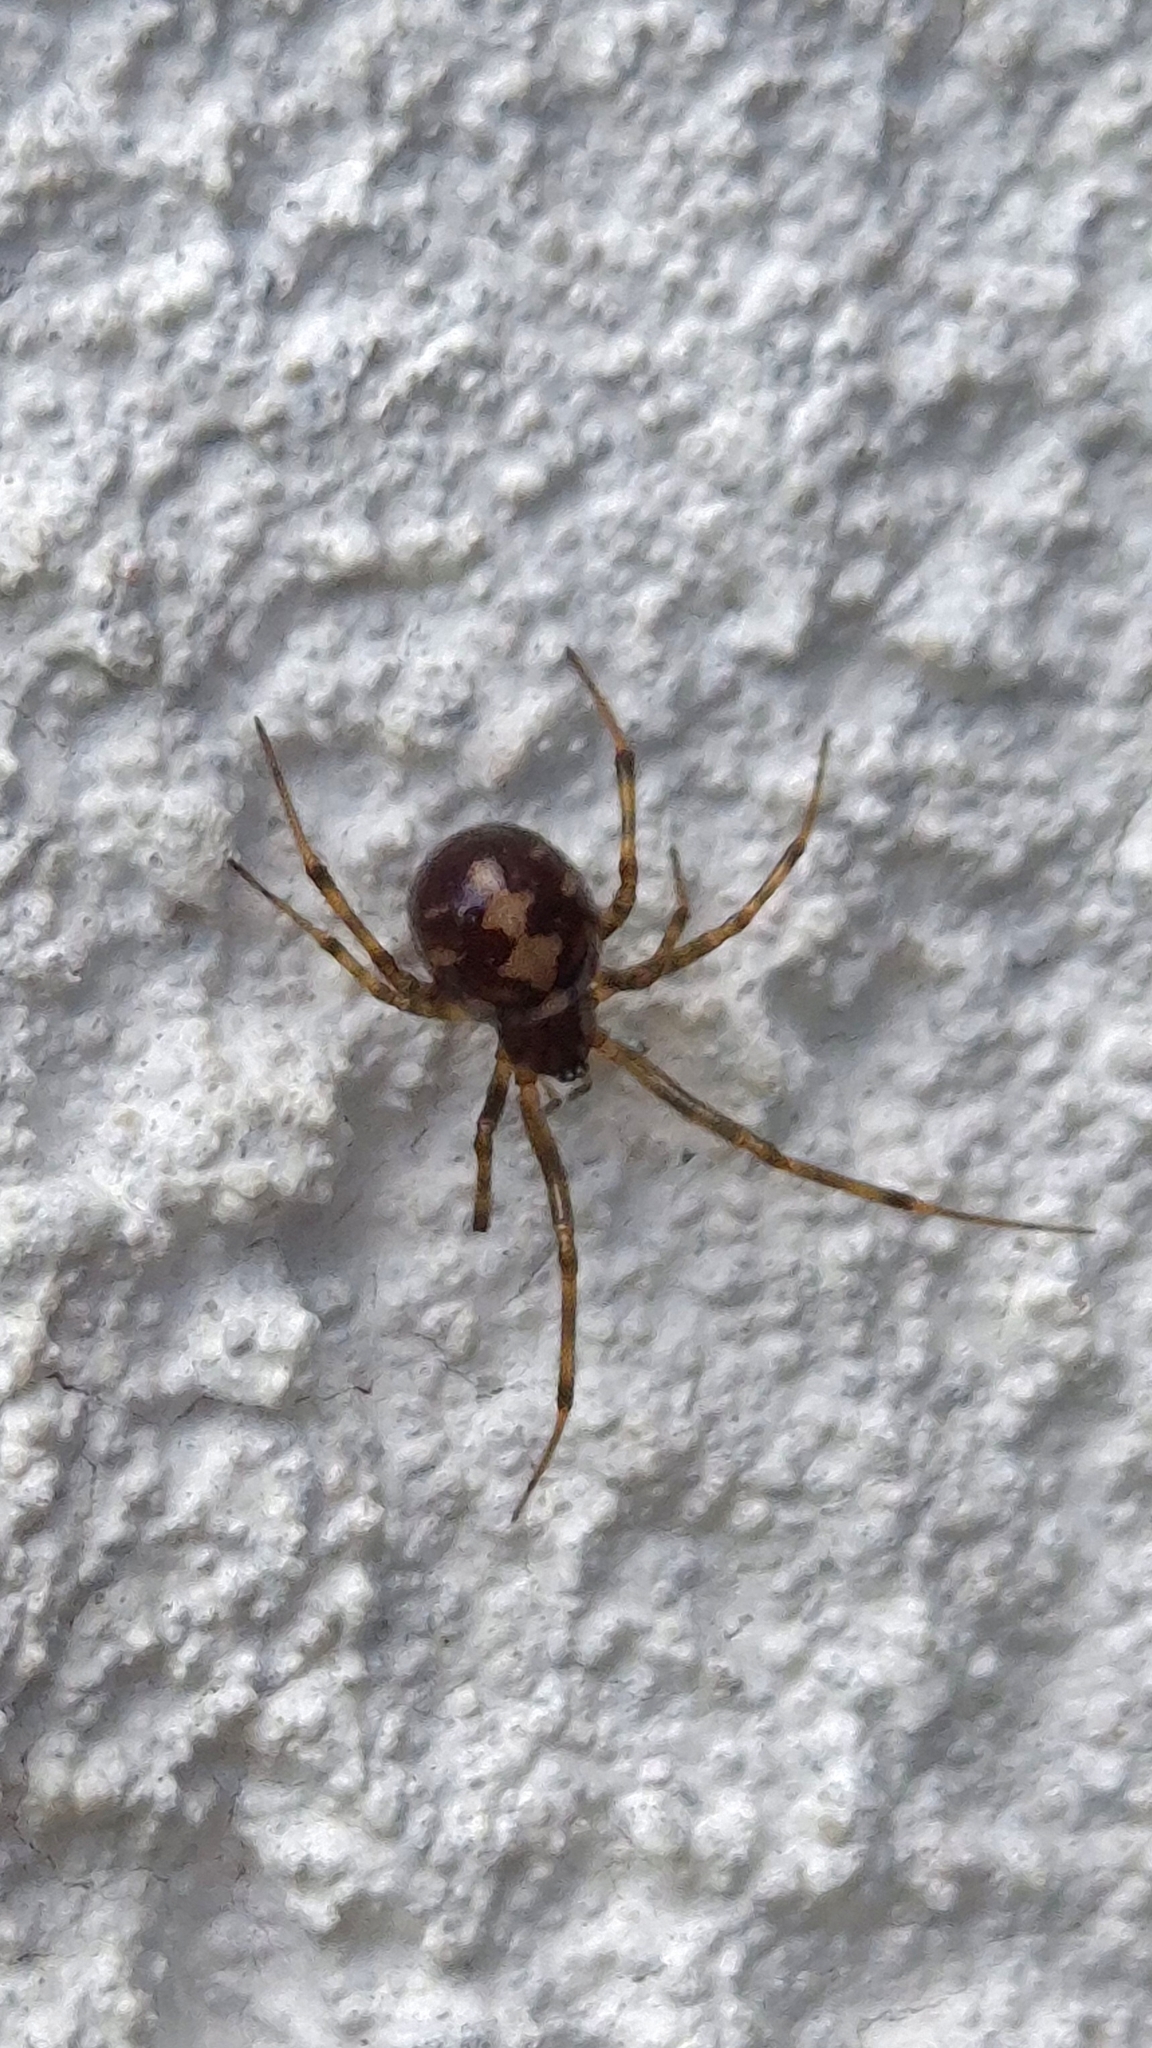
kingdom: Animalia
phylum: Arthropoda
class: Arachnida
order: Araneae
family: Theridiidae
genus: Steatoda
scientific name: Steatoda triangulosa
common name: Triangulate bud spider
